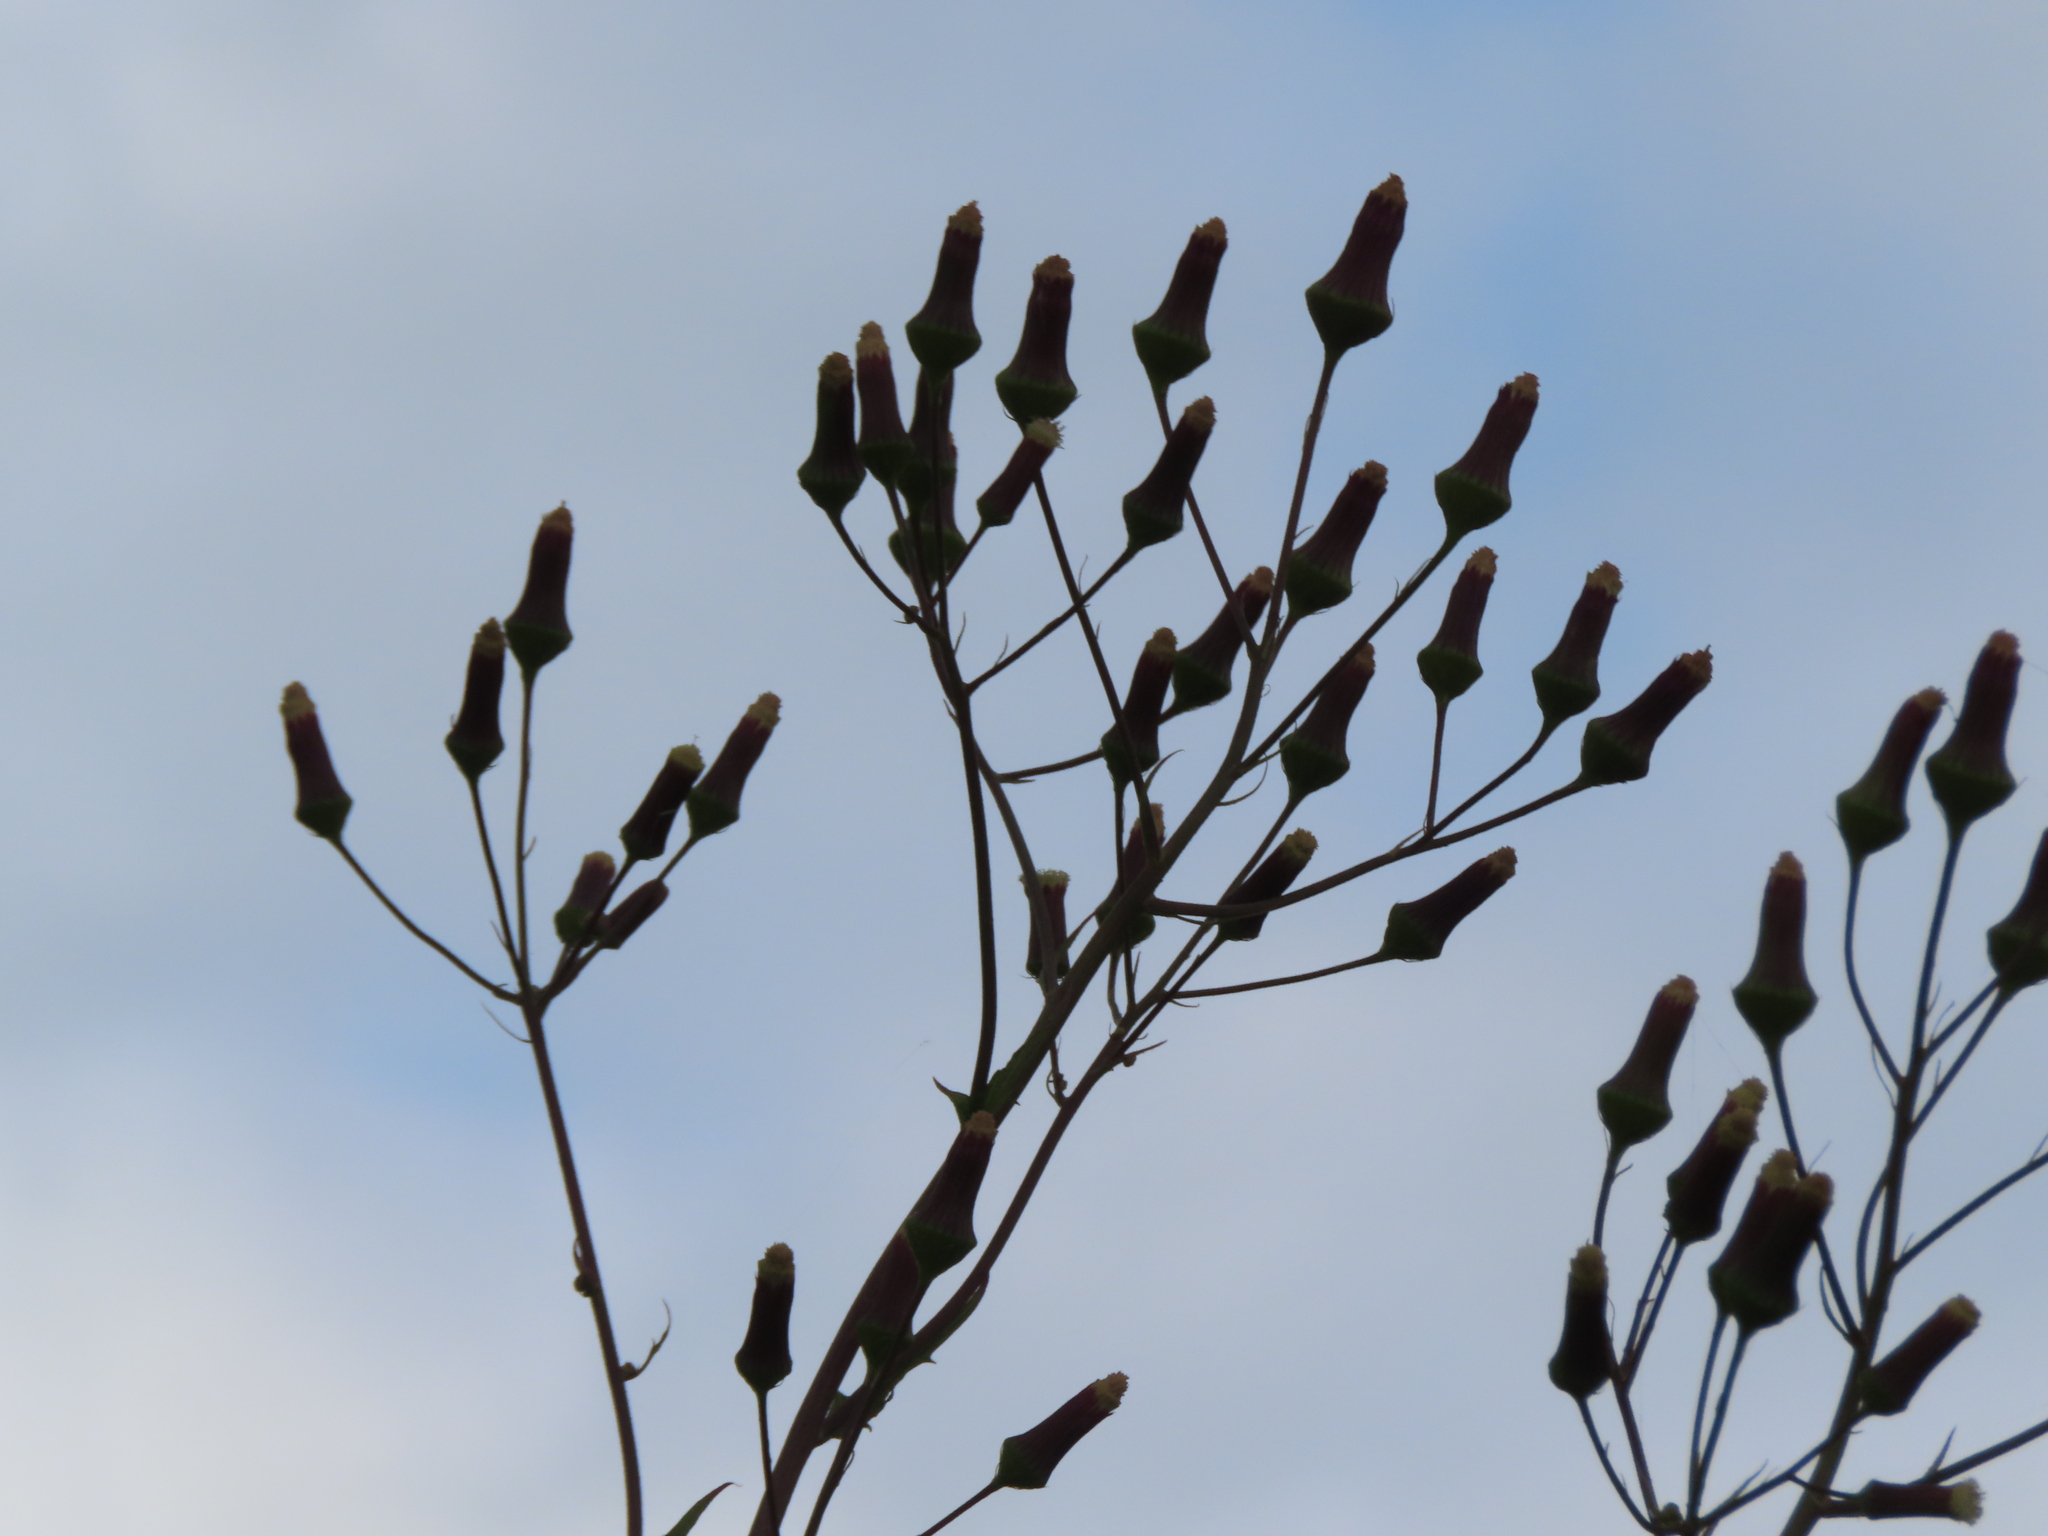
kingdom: Plantae
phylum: Tracheophyta
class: Magnoliopsida
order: Asterales
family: Asteraceae
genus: Erechtites
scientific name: Erechtites hieraciifolius
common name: American burnweed
